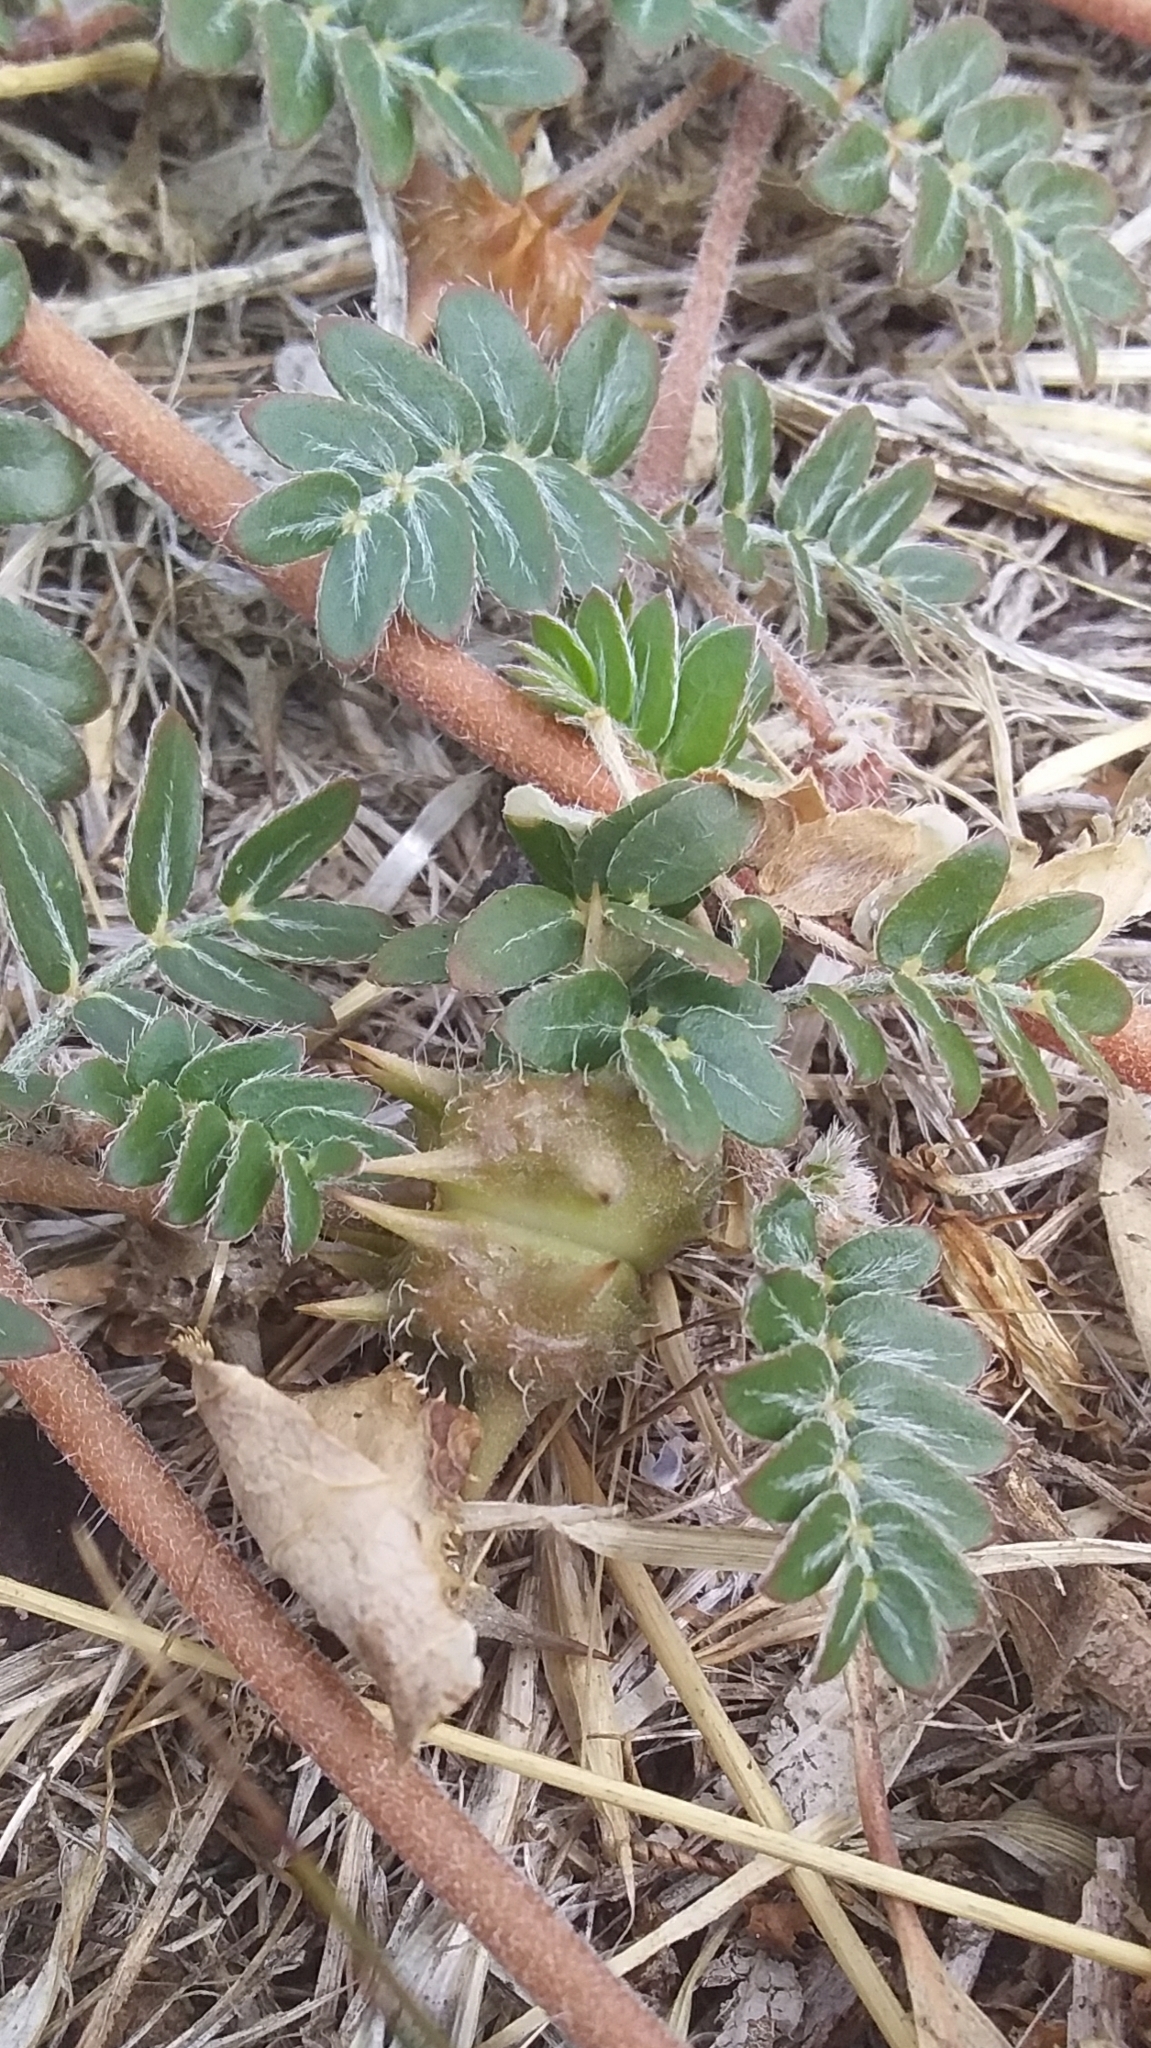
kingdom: Plantae
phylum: Tracheophyta
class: Magnoliopsida
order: Zygophyllales
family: Zygophyllaceae
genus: Tribulus
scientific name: Tribulus terrestris
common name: Puncturevine
